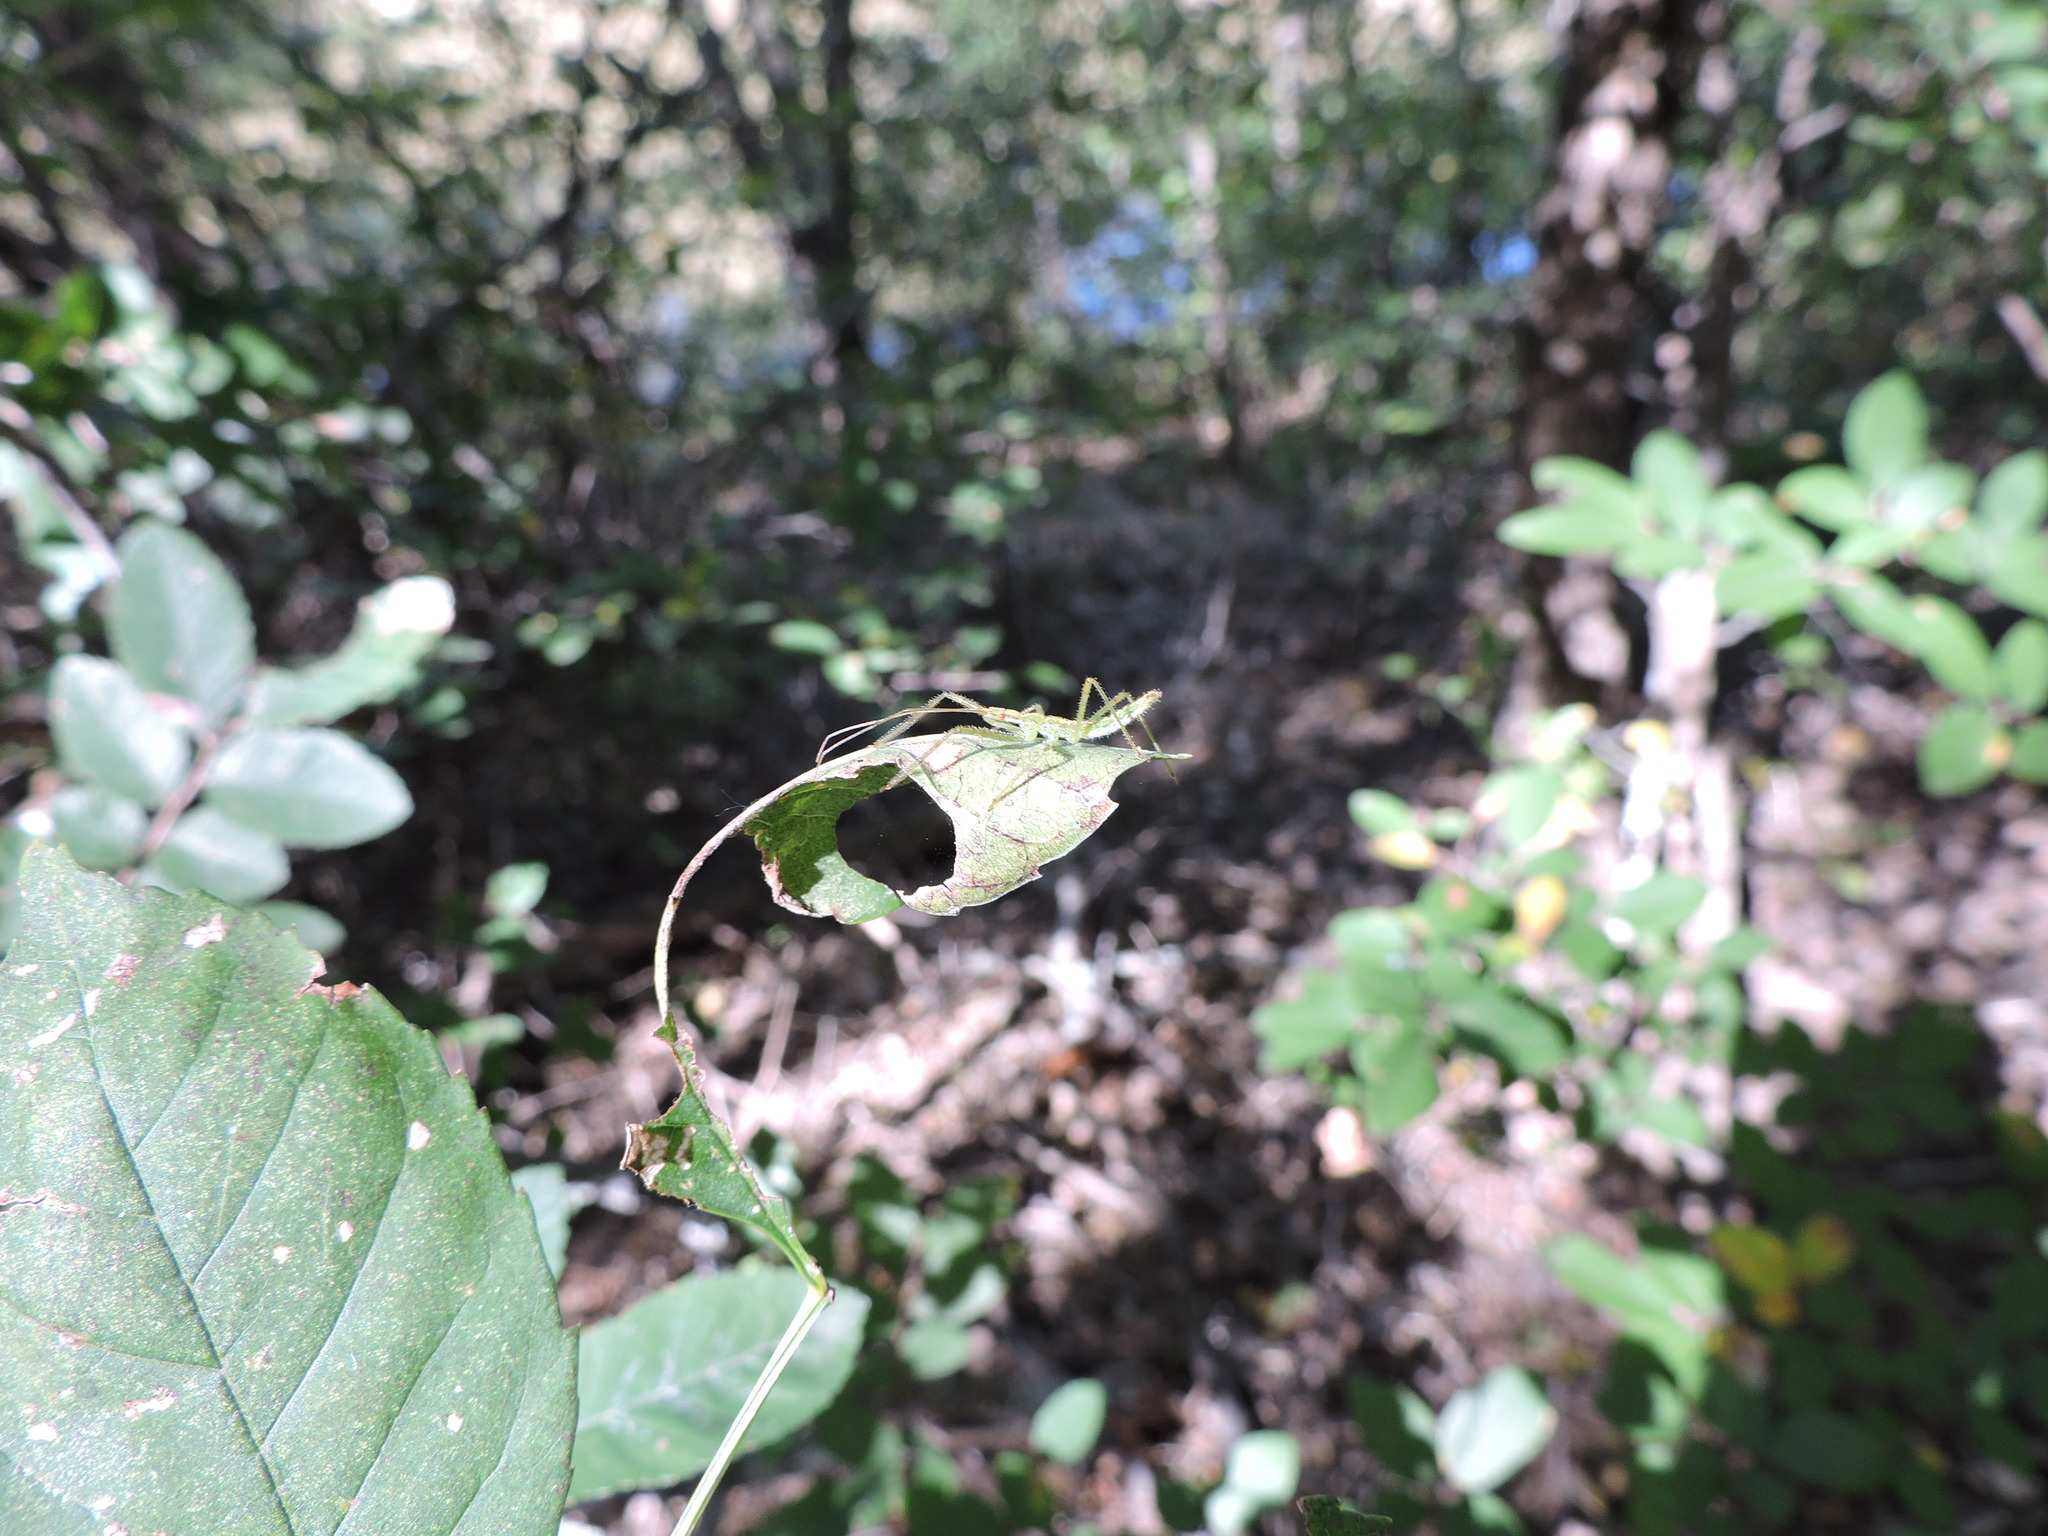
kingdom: Animalia
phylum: Arthropoda
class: Insecta
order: Hemiptera
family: Reduviidae
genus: Zelus
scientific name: Zelus luridus
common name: Pale green assassin bug
